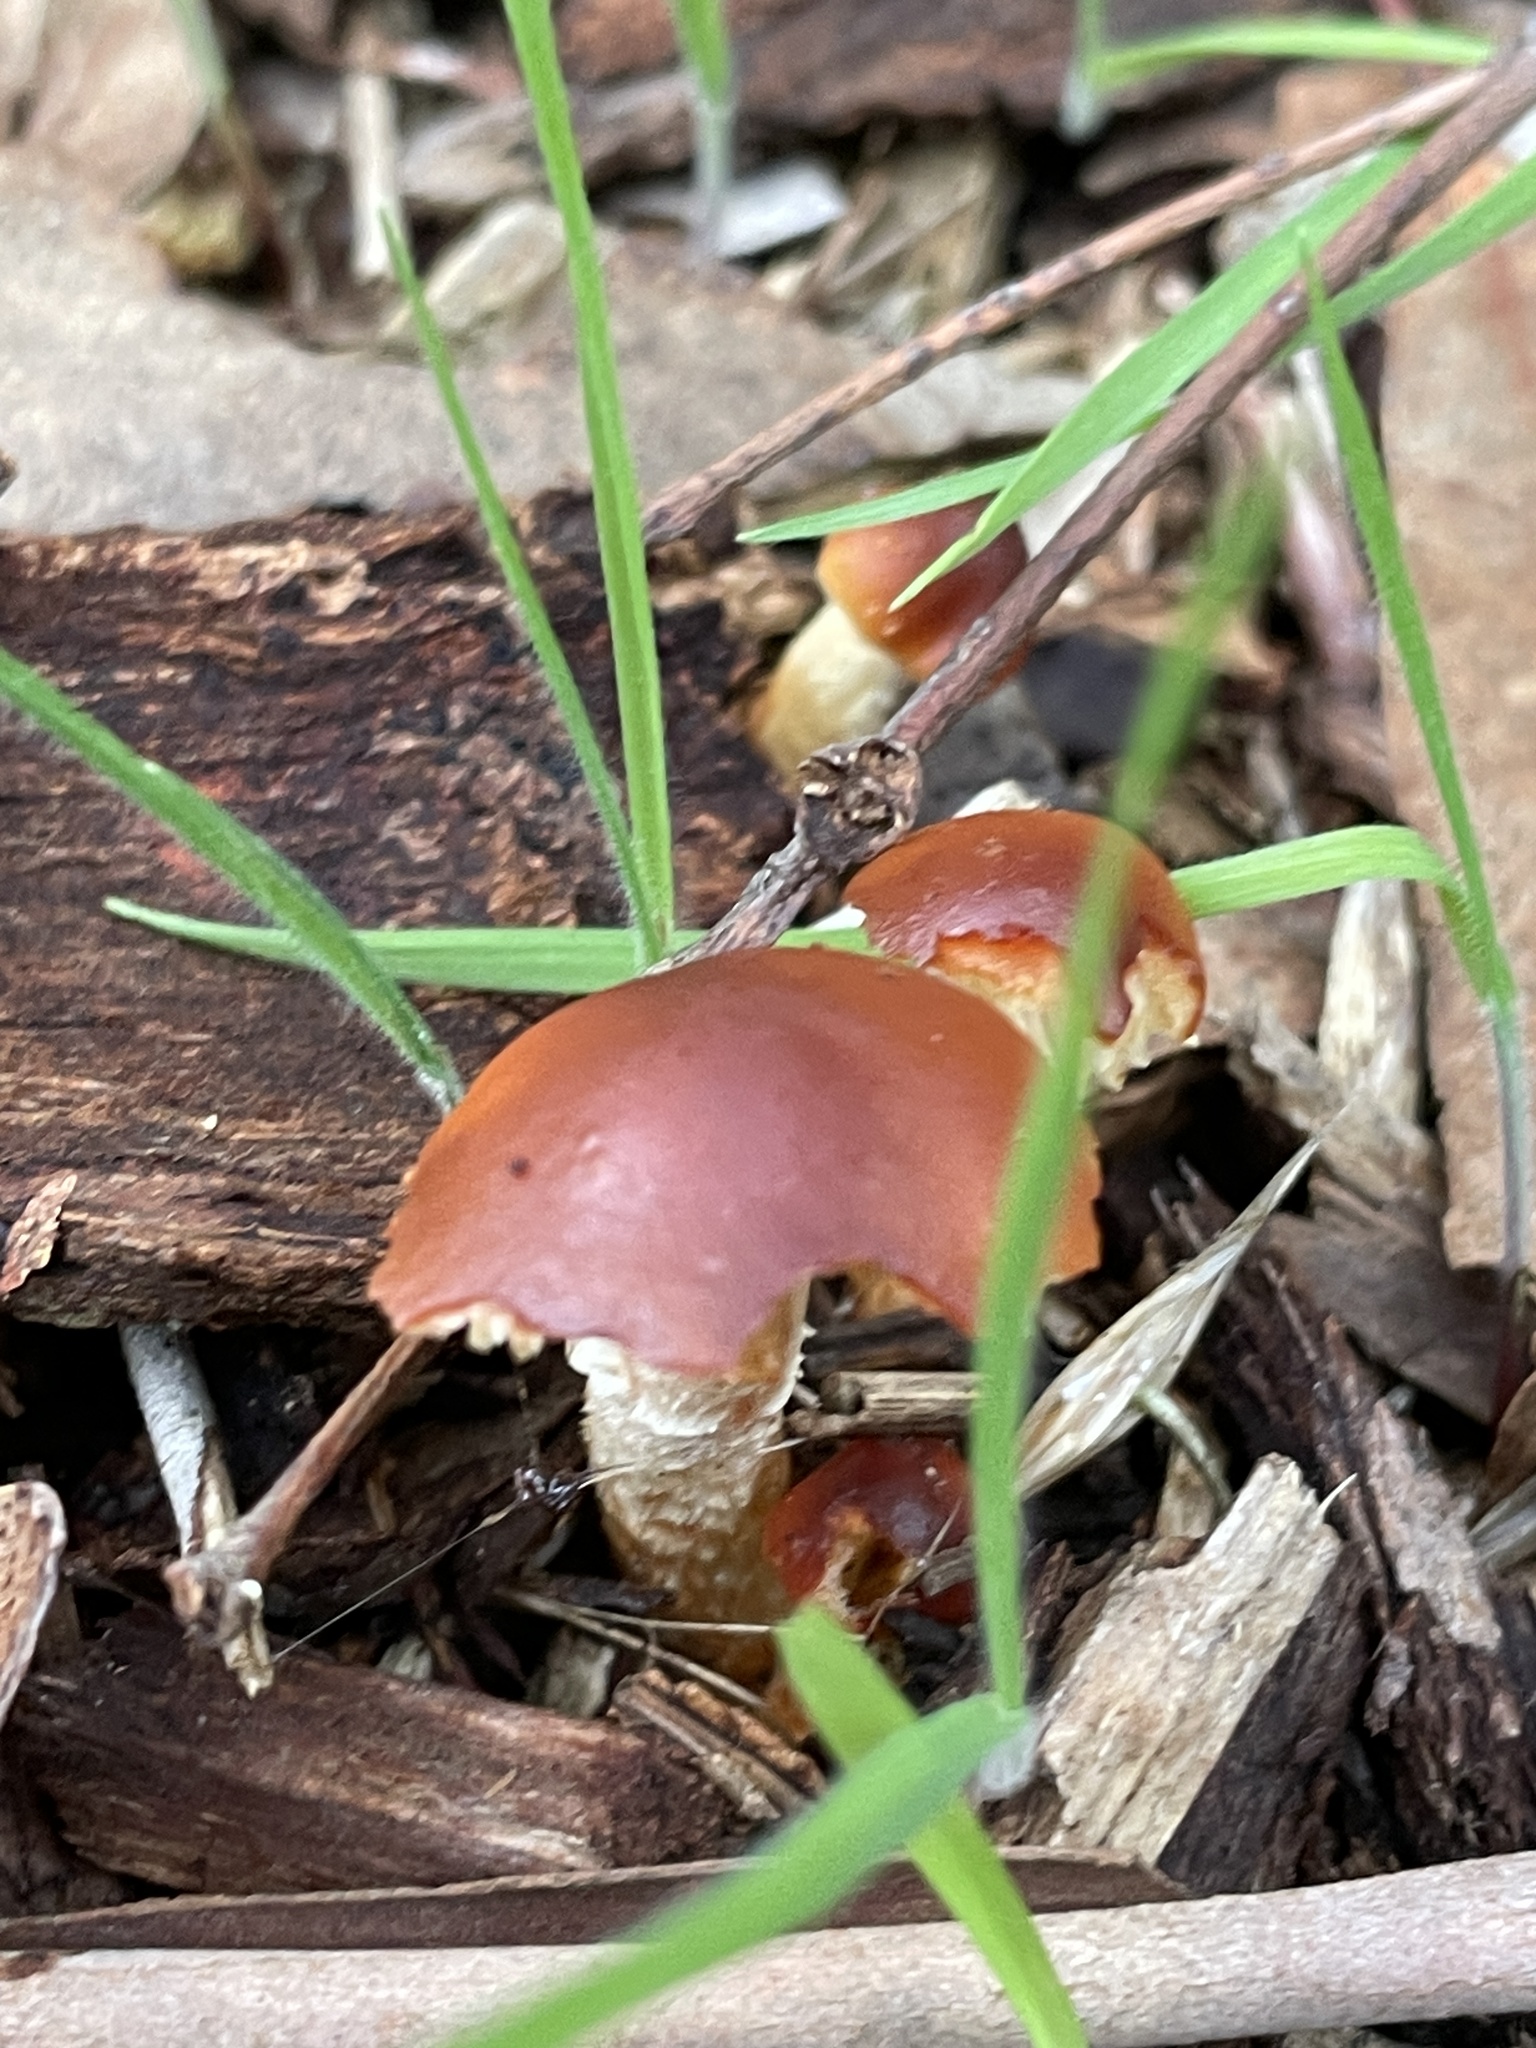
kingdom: Fungi
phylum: Basidiomycota
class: Agaricomycetes
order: Agaricales
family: Strophariaceae
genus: Leratiomyces
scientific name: Leratiomyces ceres
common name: Redlead roundhead
